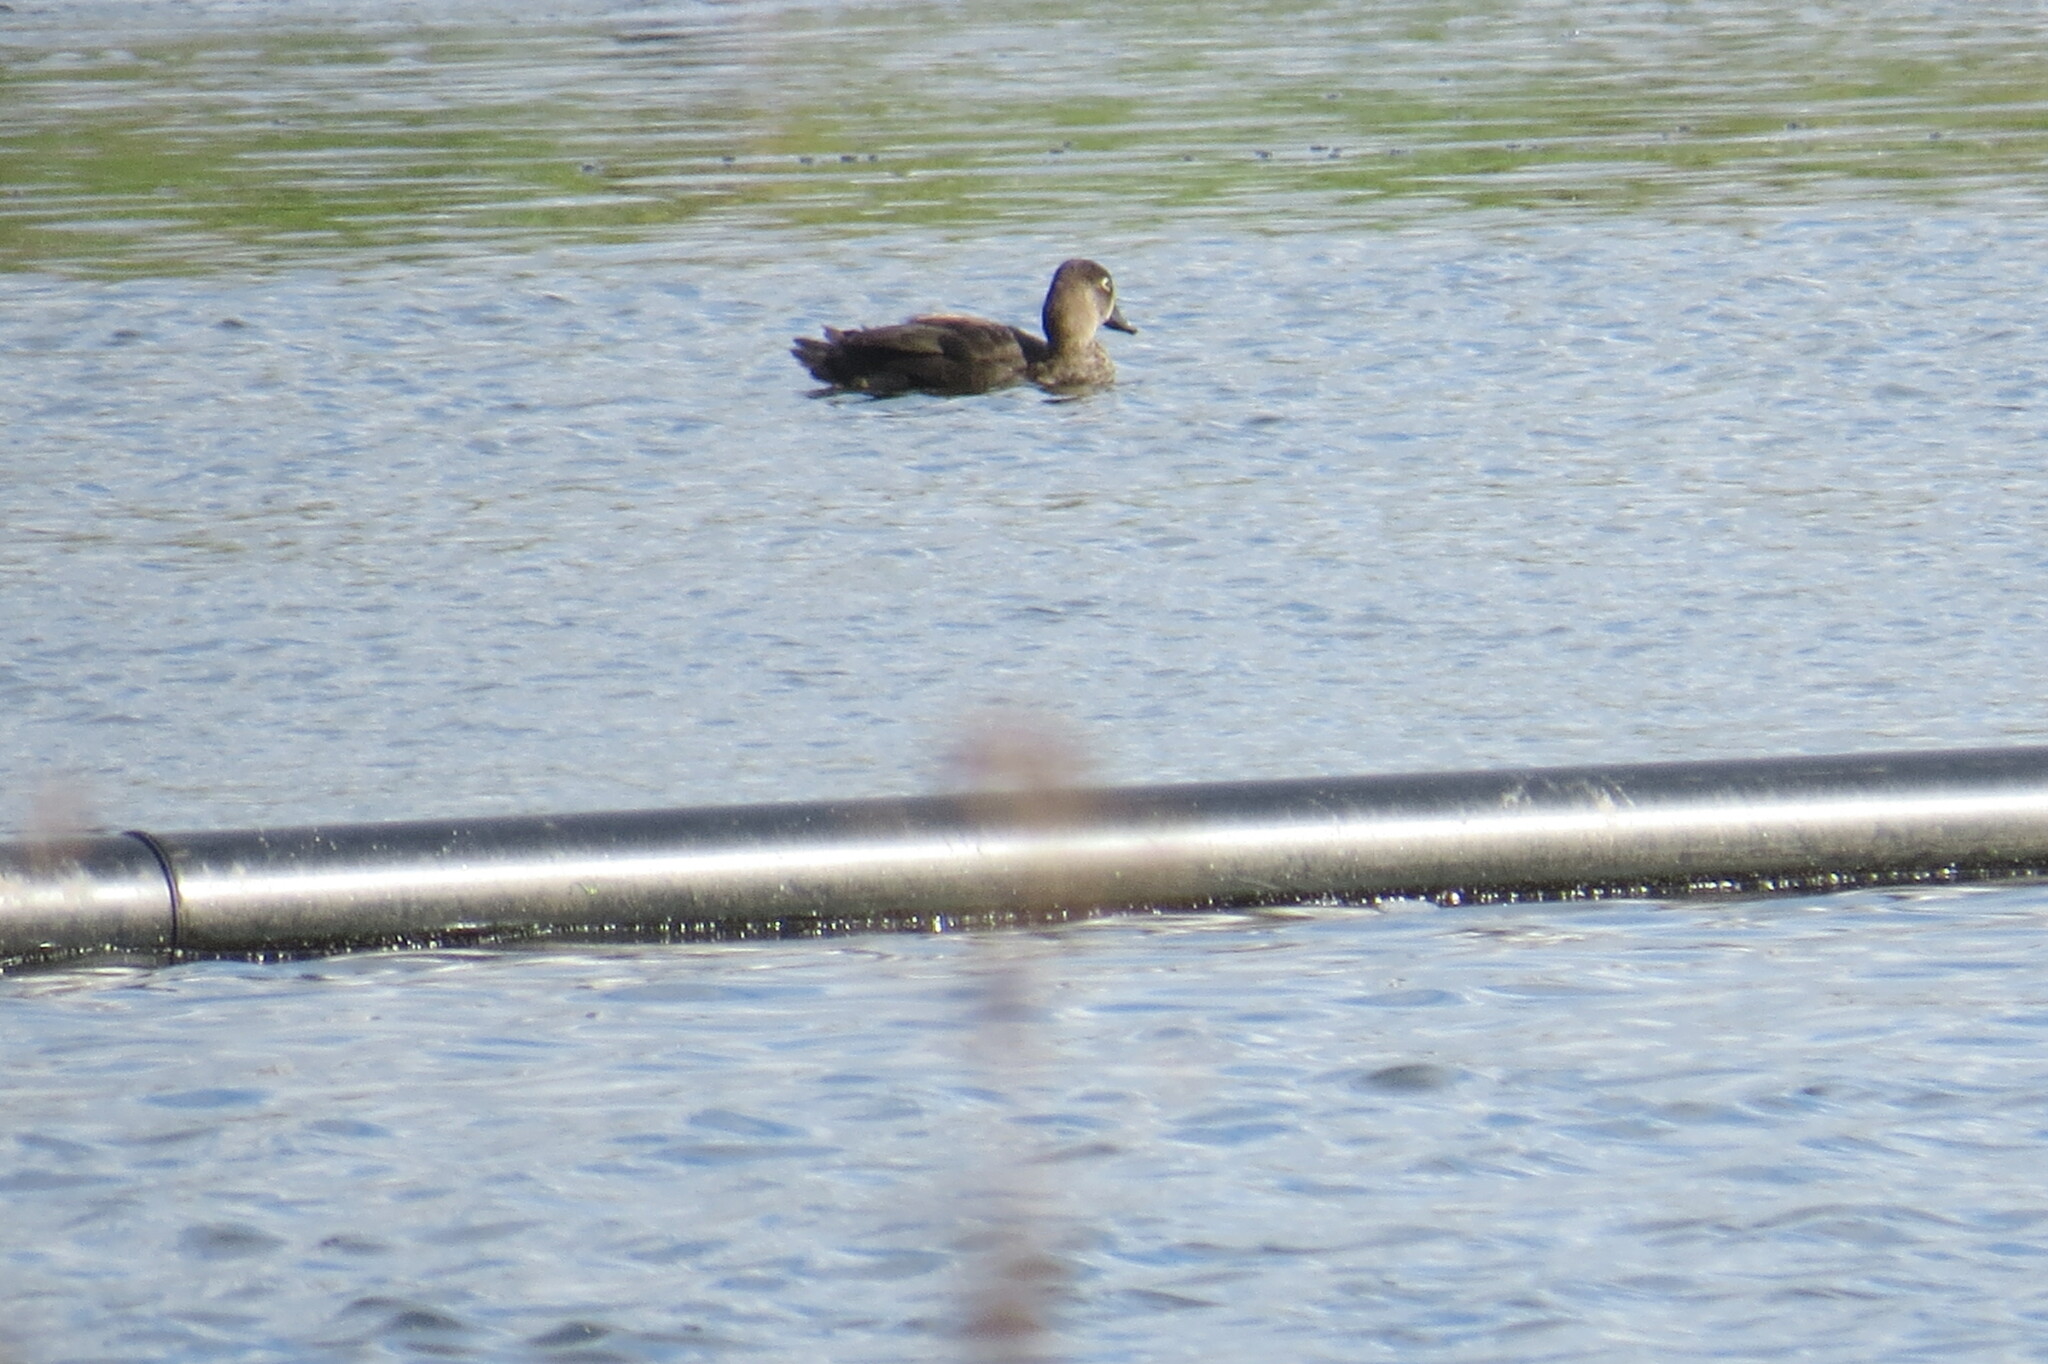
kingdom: Animalia
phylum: Chordata
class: Aves
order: Anseriformes
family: Anatidae
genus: Aix
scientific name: Aix sponsa
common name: Wood duck
